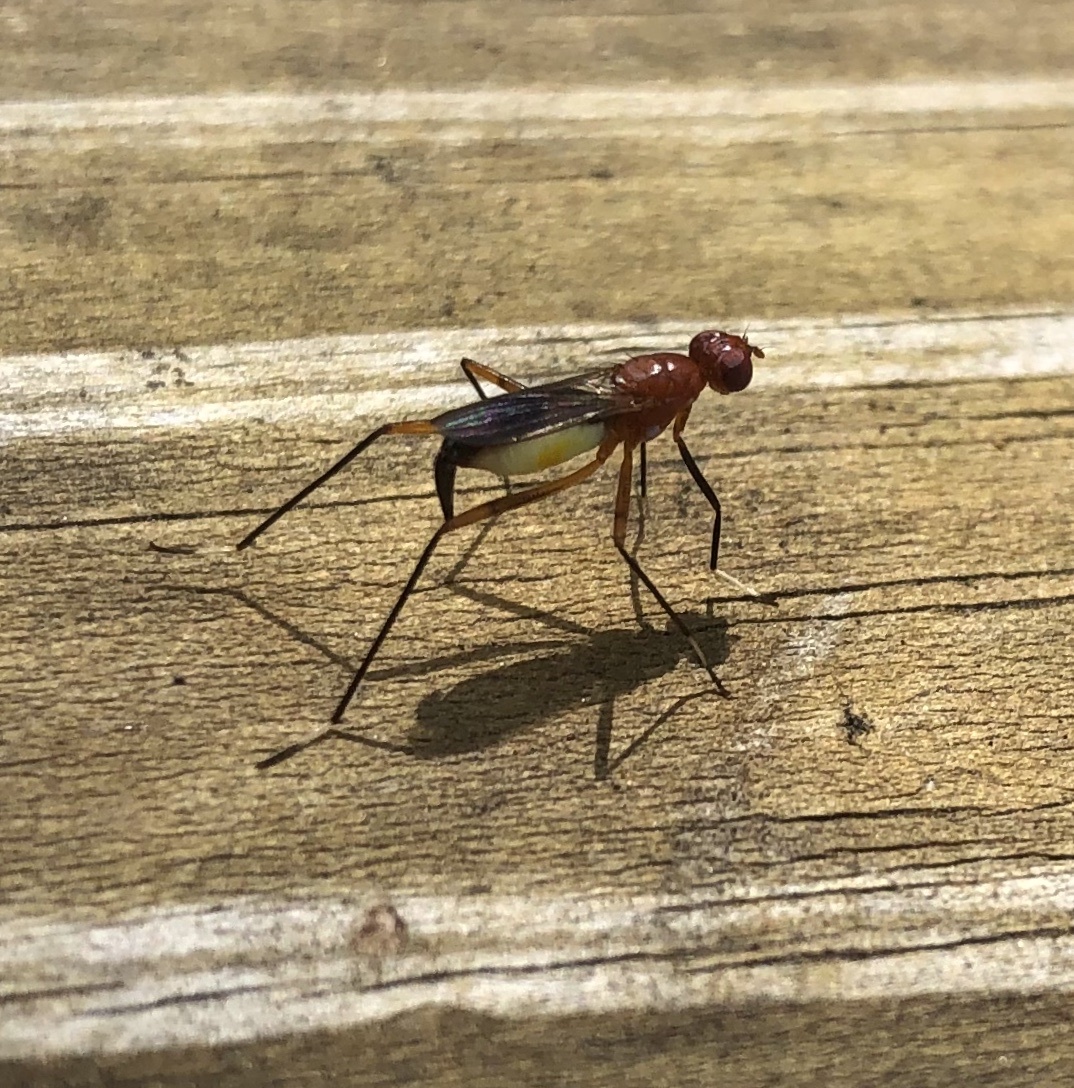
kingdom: Animalia
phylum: Arthropoda
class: Insecta
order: Diptera
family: Micropezidae
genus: Grallipeza
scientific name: Grallipeza nebulosa
